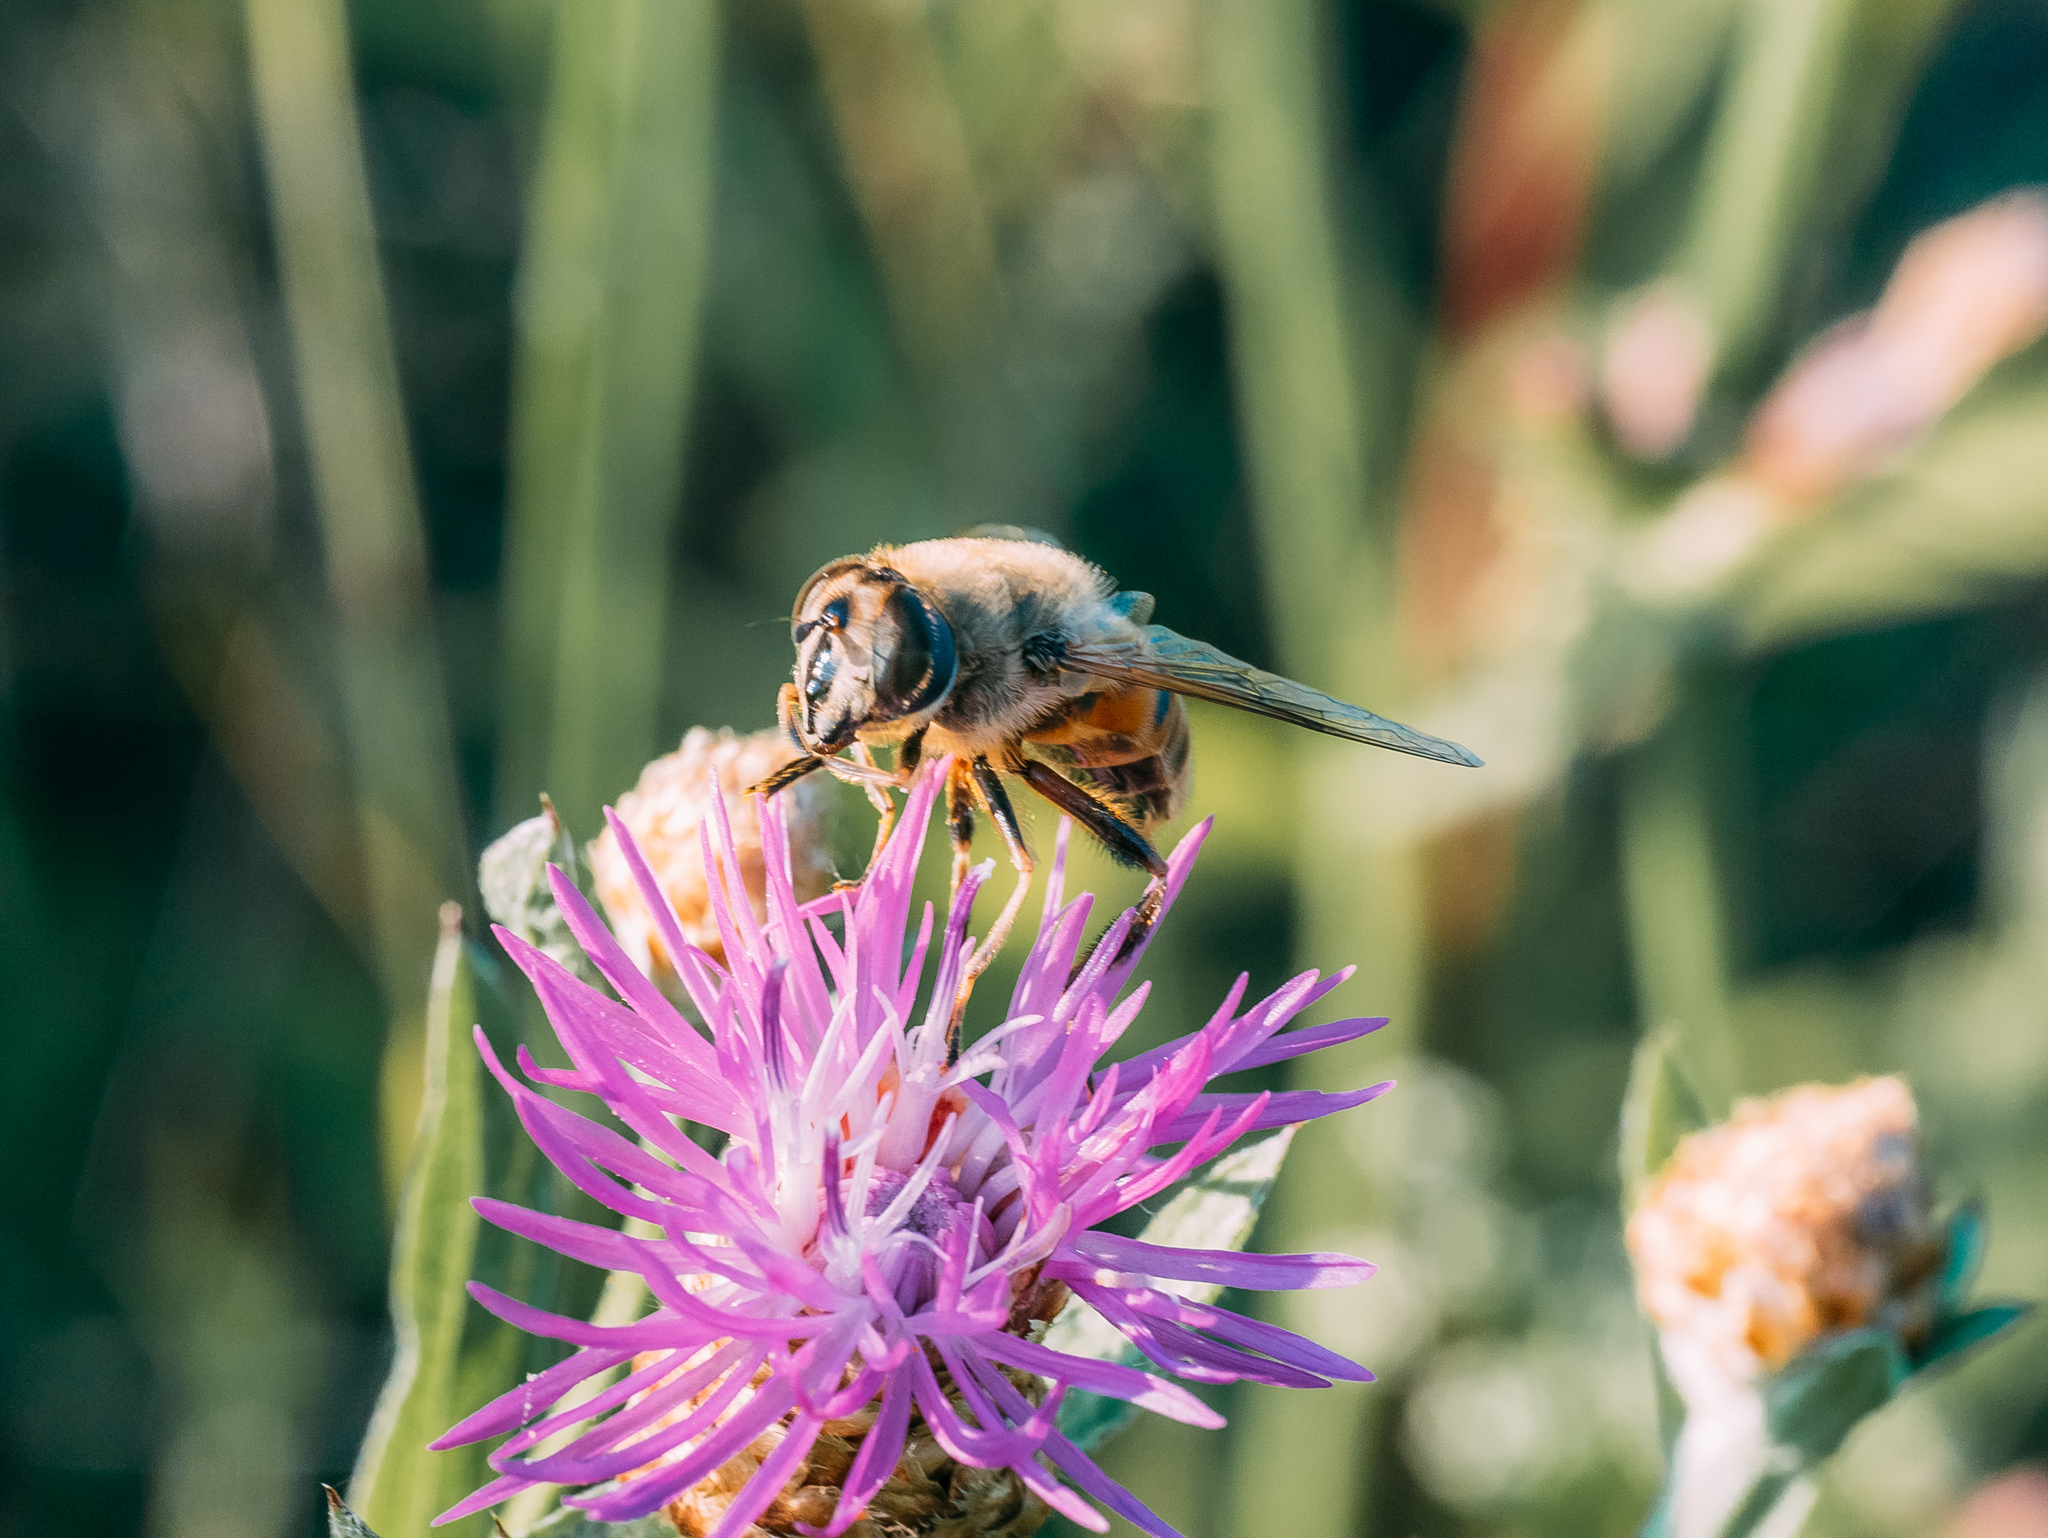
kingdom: Animalia
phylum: Arthropoda
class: Insecta
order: Diptera
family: Syrphidae
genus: Eristalis
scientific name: Eristalis tenax
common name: Drone fly
